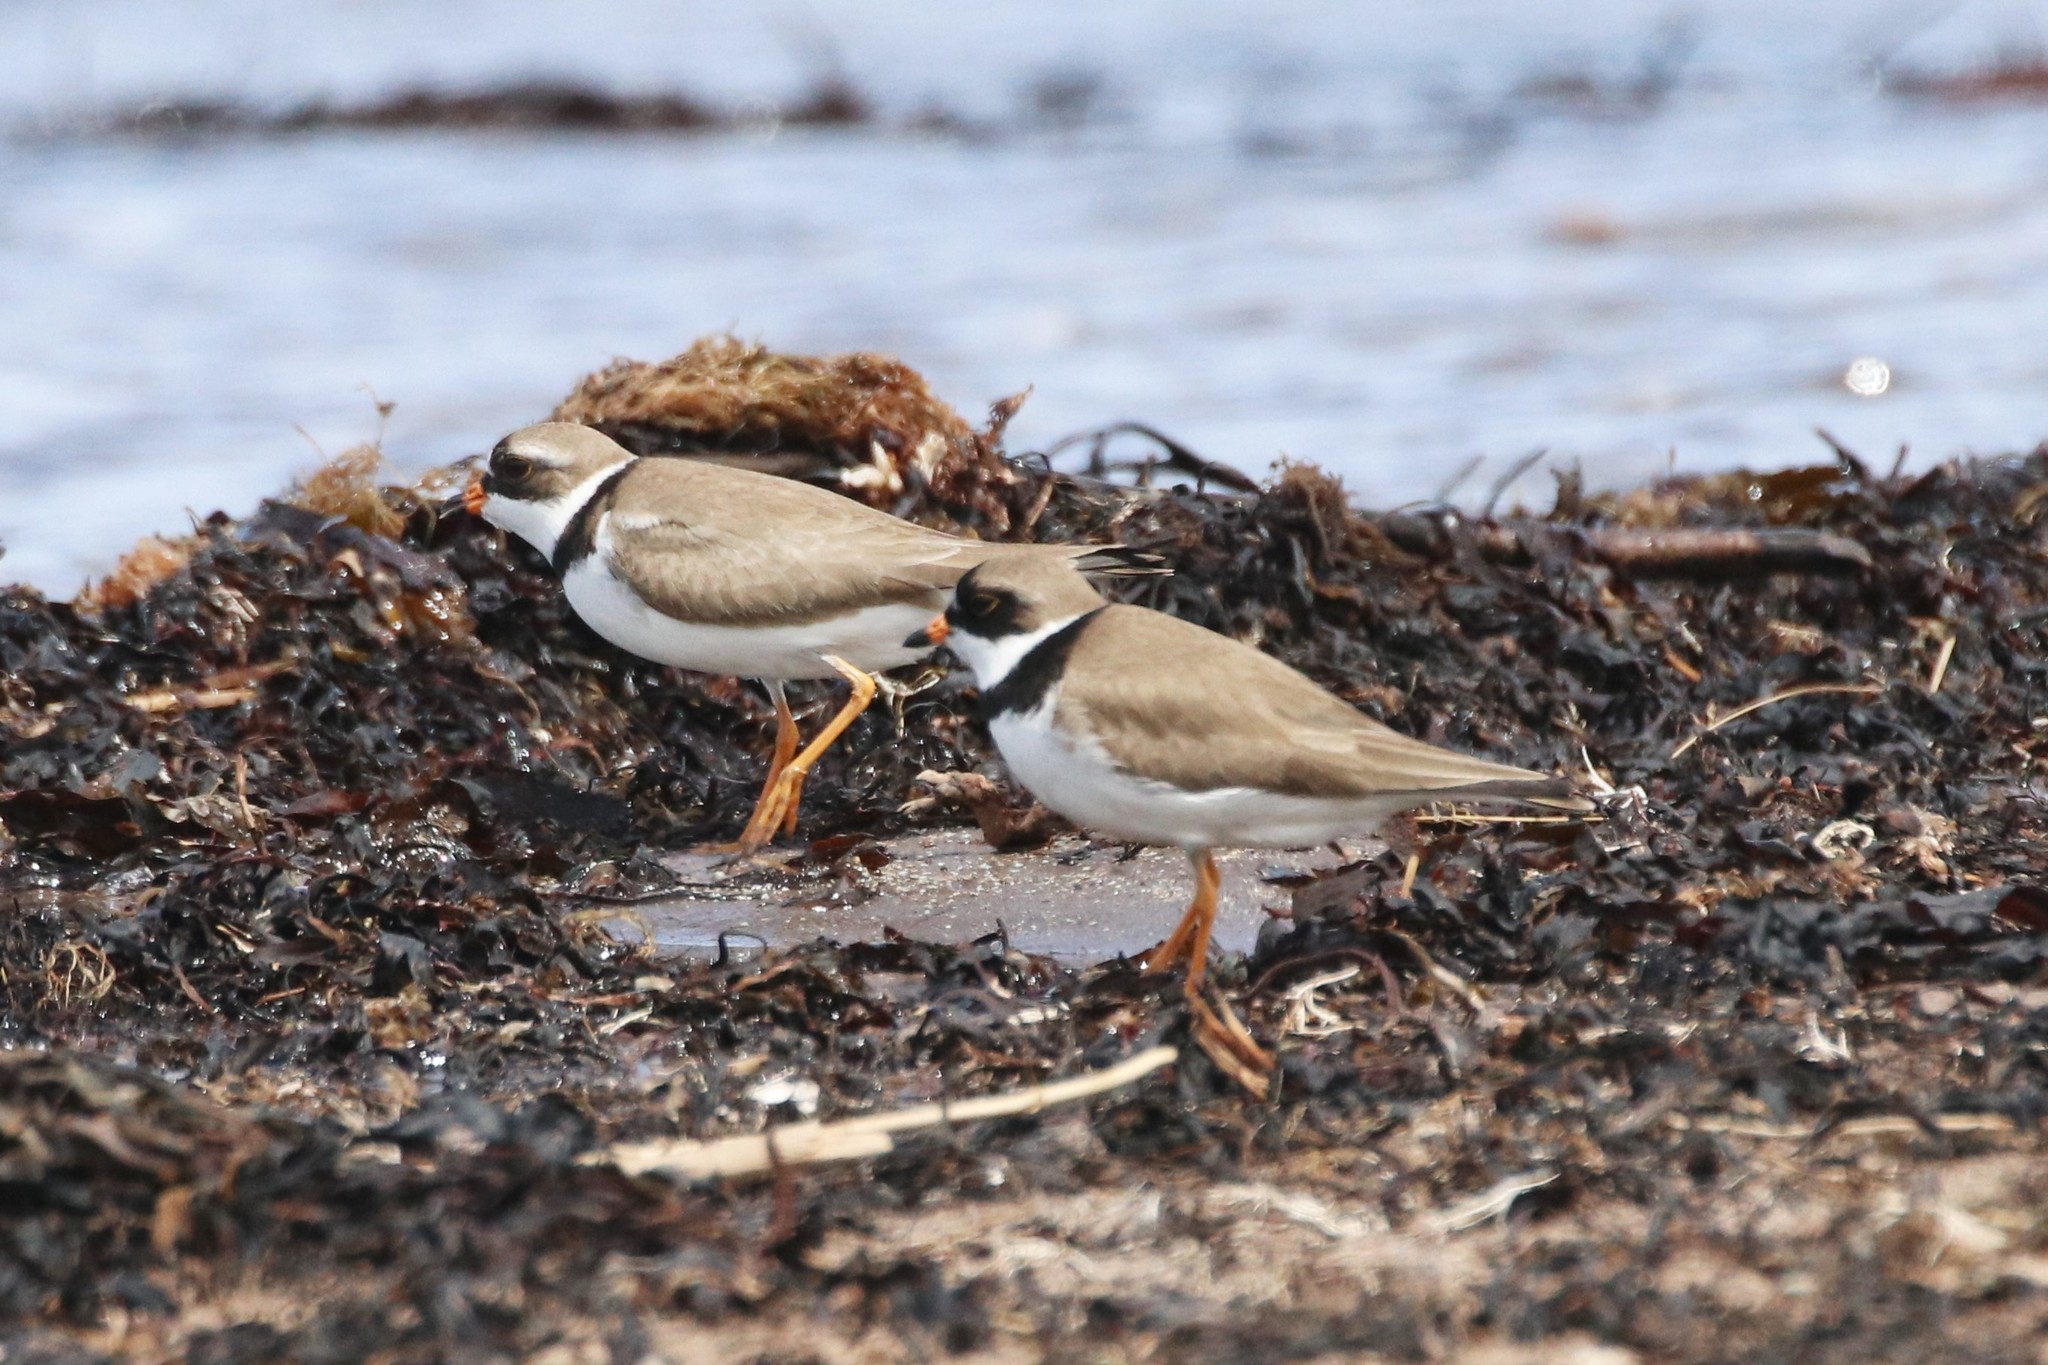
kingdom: Animalia
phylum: Chordata
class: Aves
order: Charadriiformes
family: Charadriidae
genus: Charadrius
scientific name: Charadrius semipalmatus
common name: Semipalmated plover
